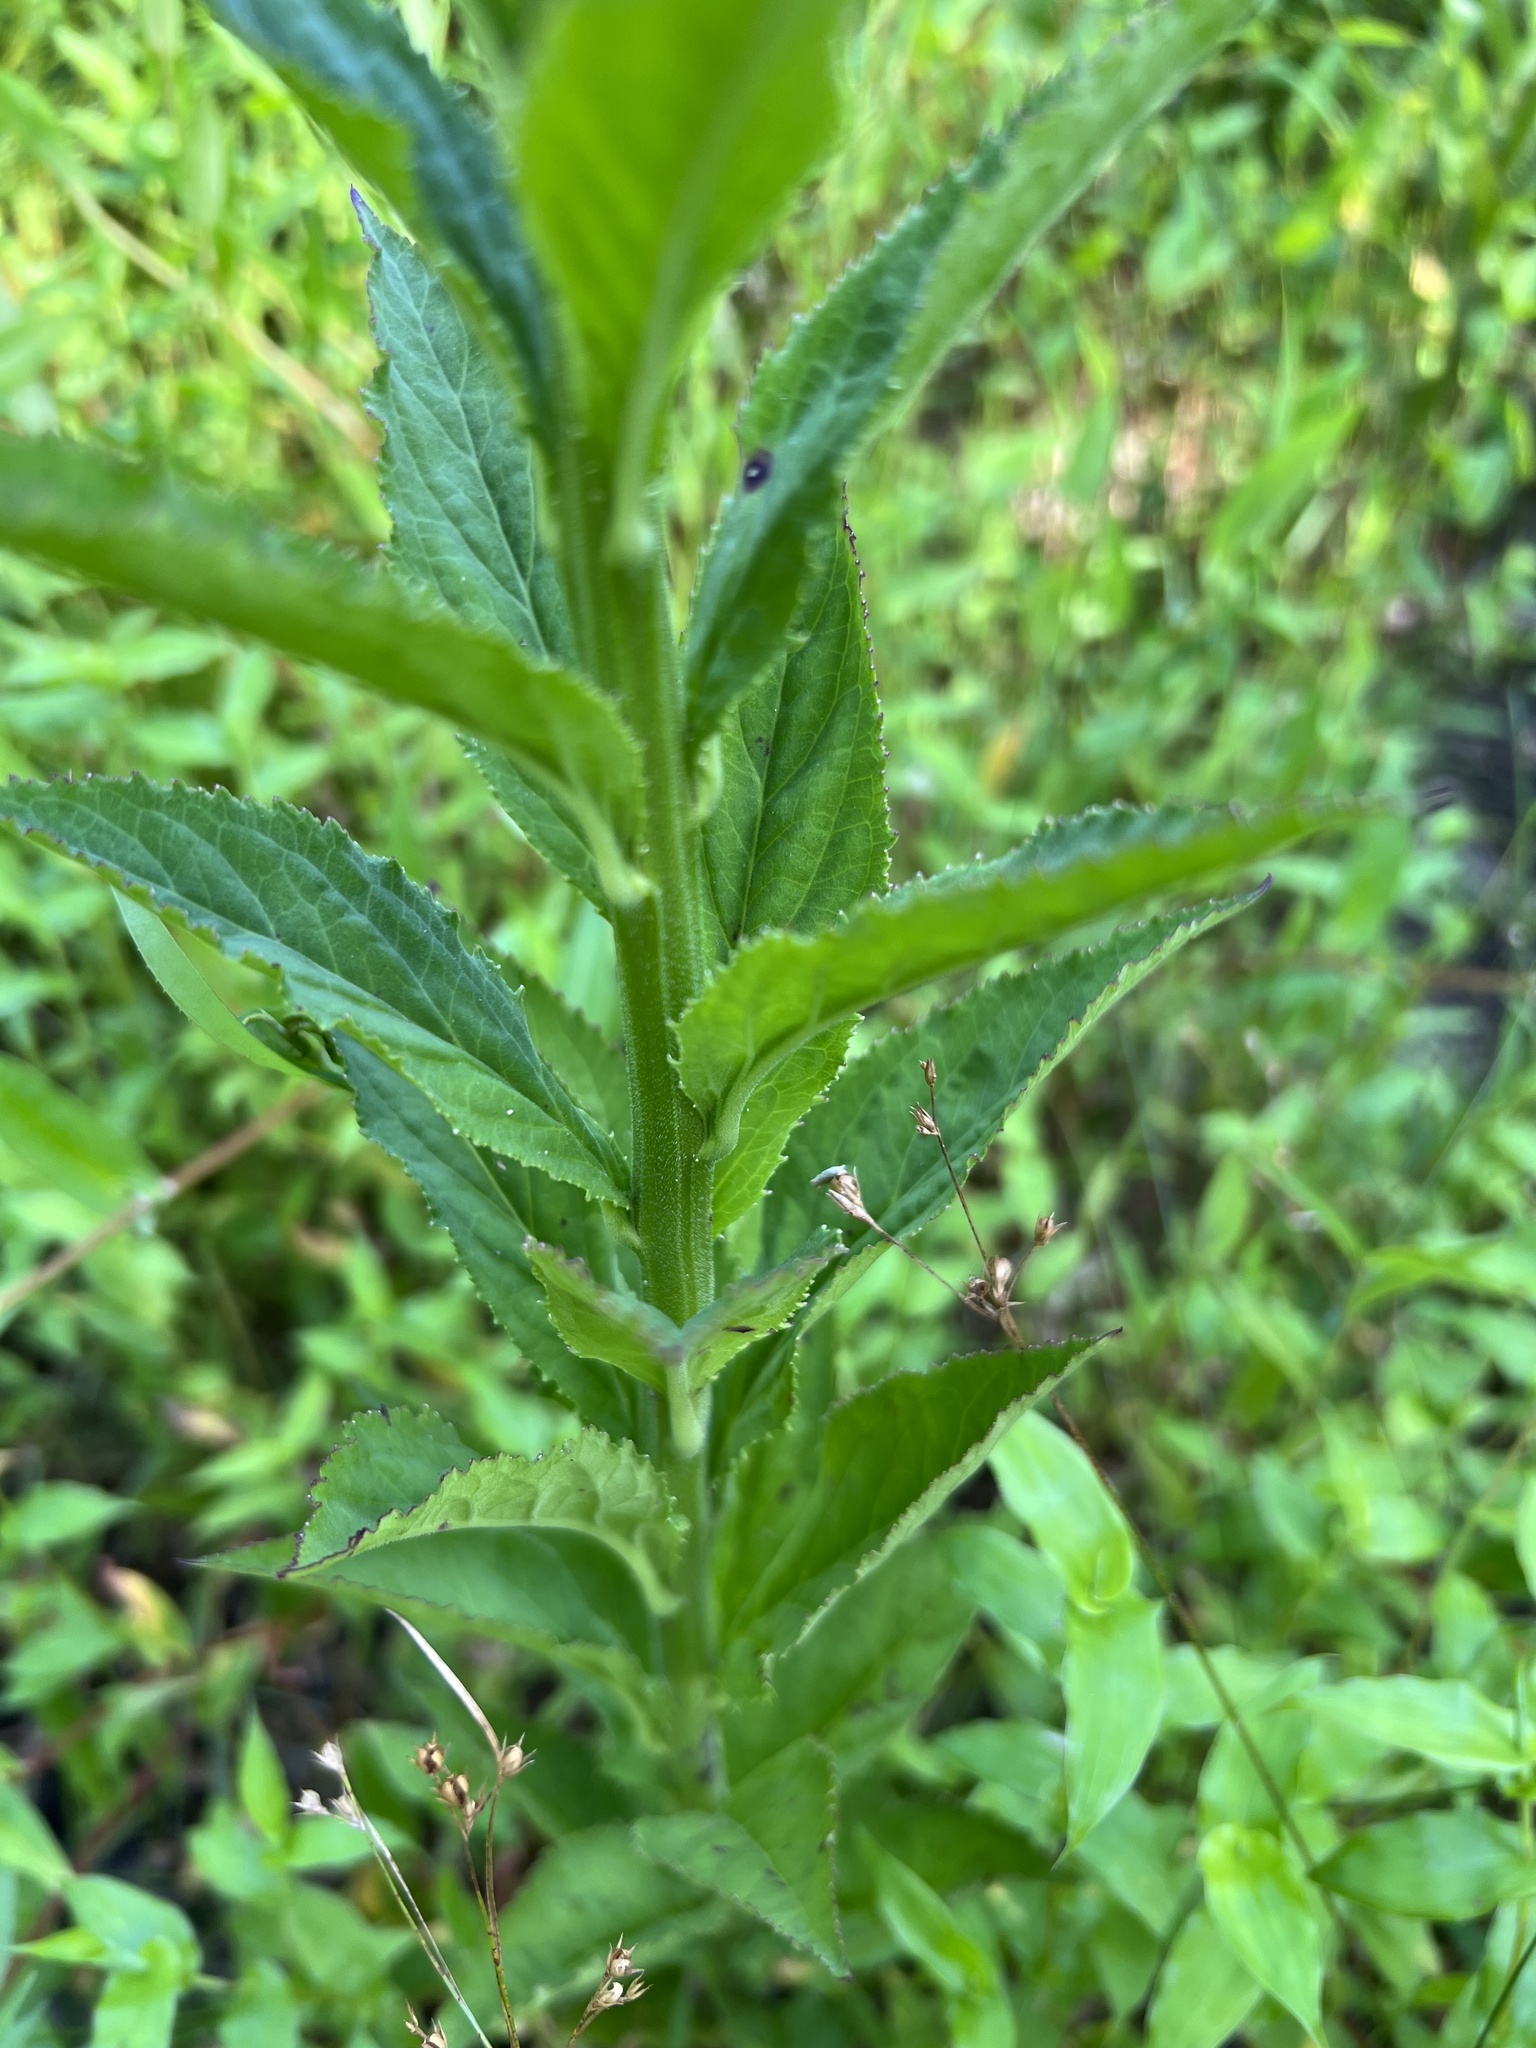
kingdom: Plantae
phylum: Tracheophyta
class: Magnoliopsida
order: Asterales
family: Campanulaceae
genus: Lobelia
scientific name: Lobelia cardinalis
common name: Cardinal flower
